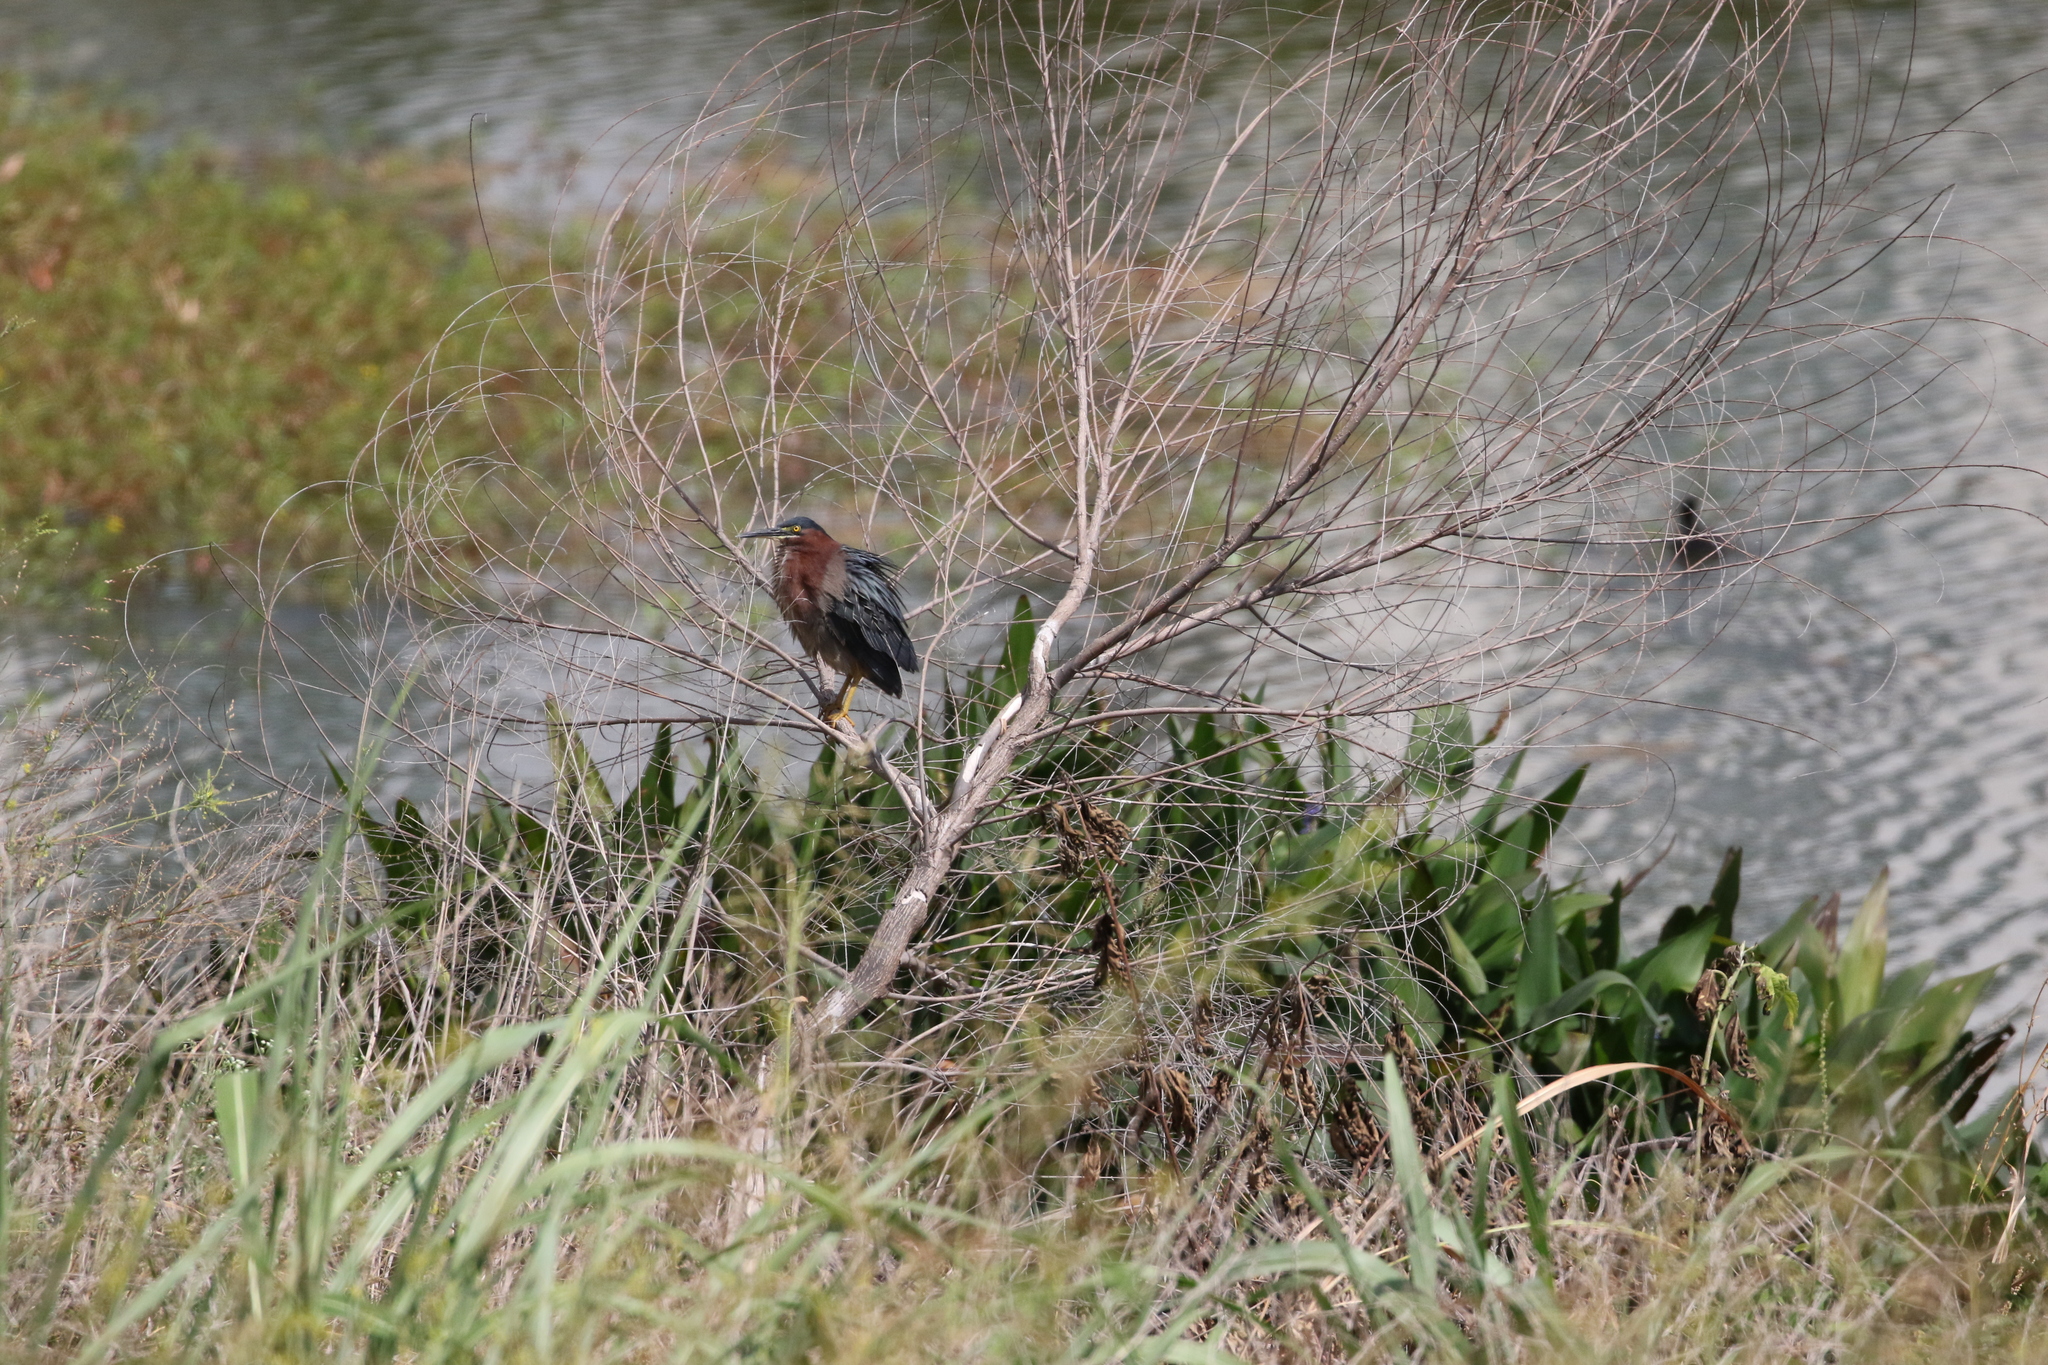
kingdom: Animalia
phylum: Chordata
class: Aves
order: Pelecaniformes
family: Ardeidae
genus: Butorides
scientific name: Butorides virescens
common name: Green heron
